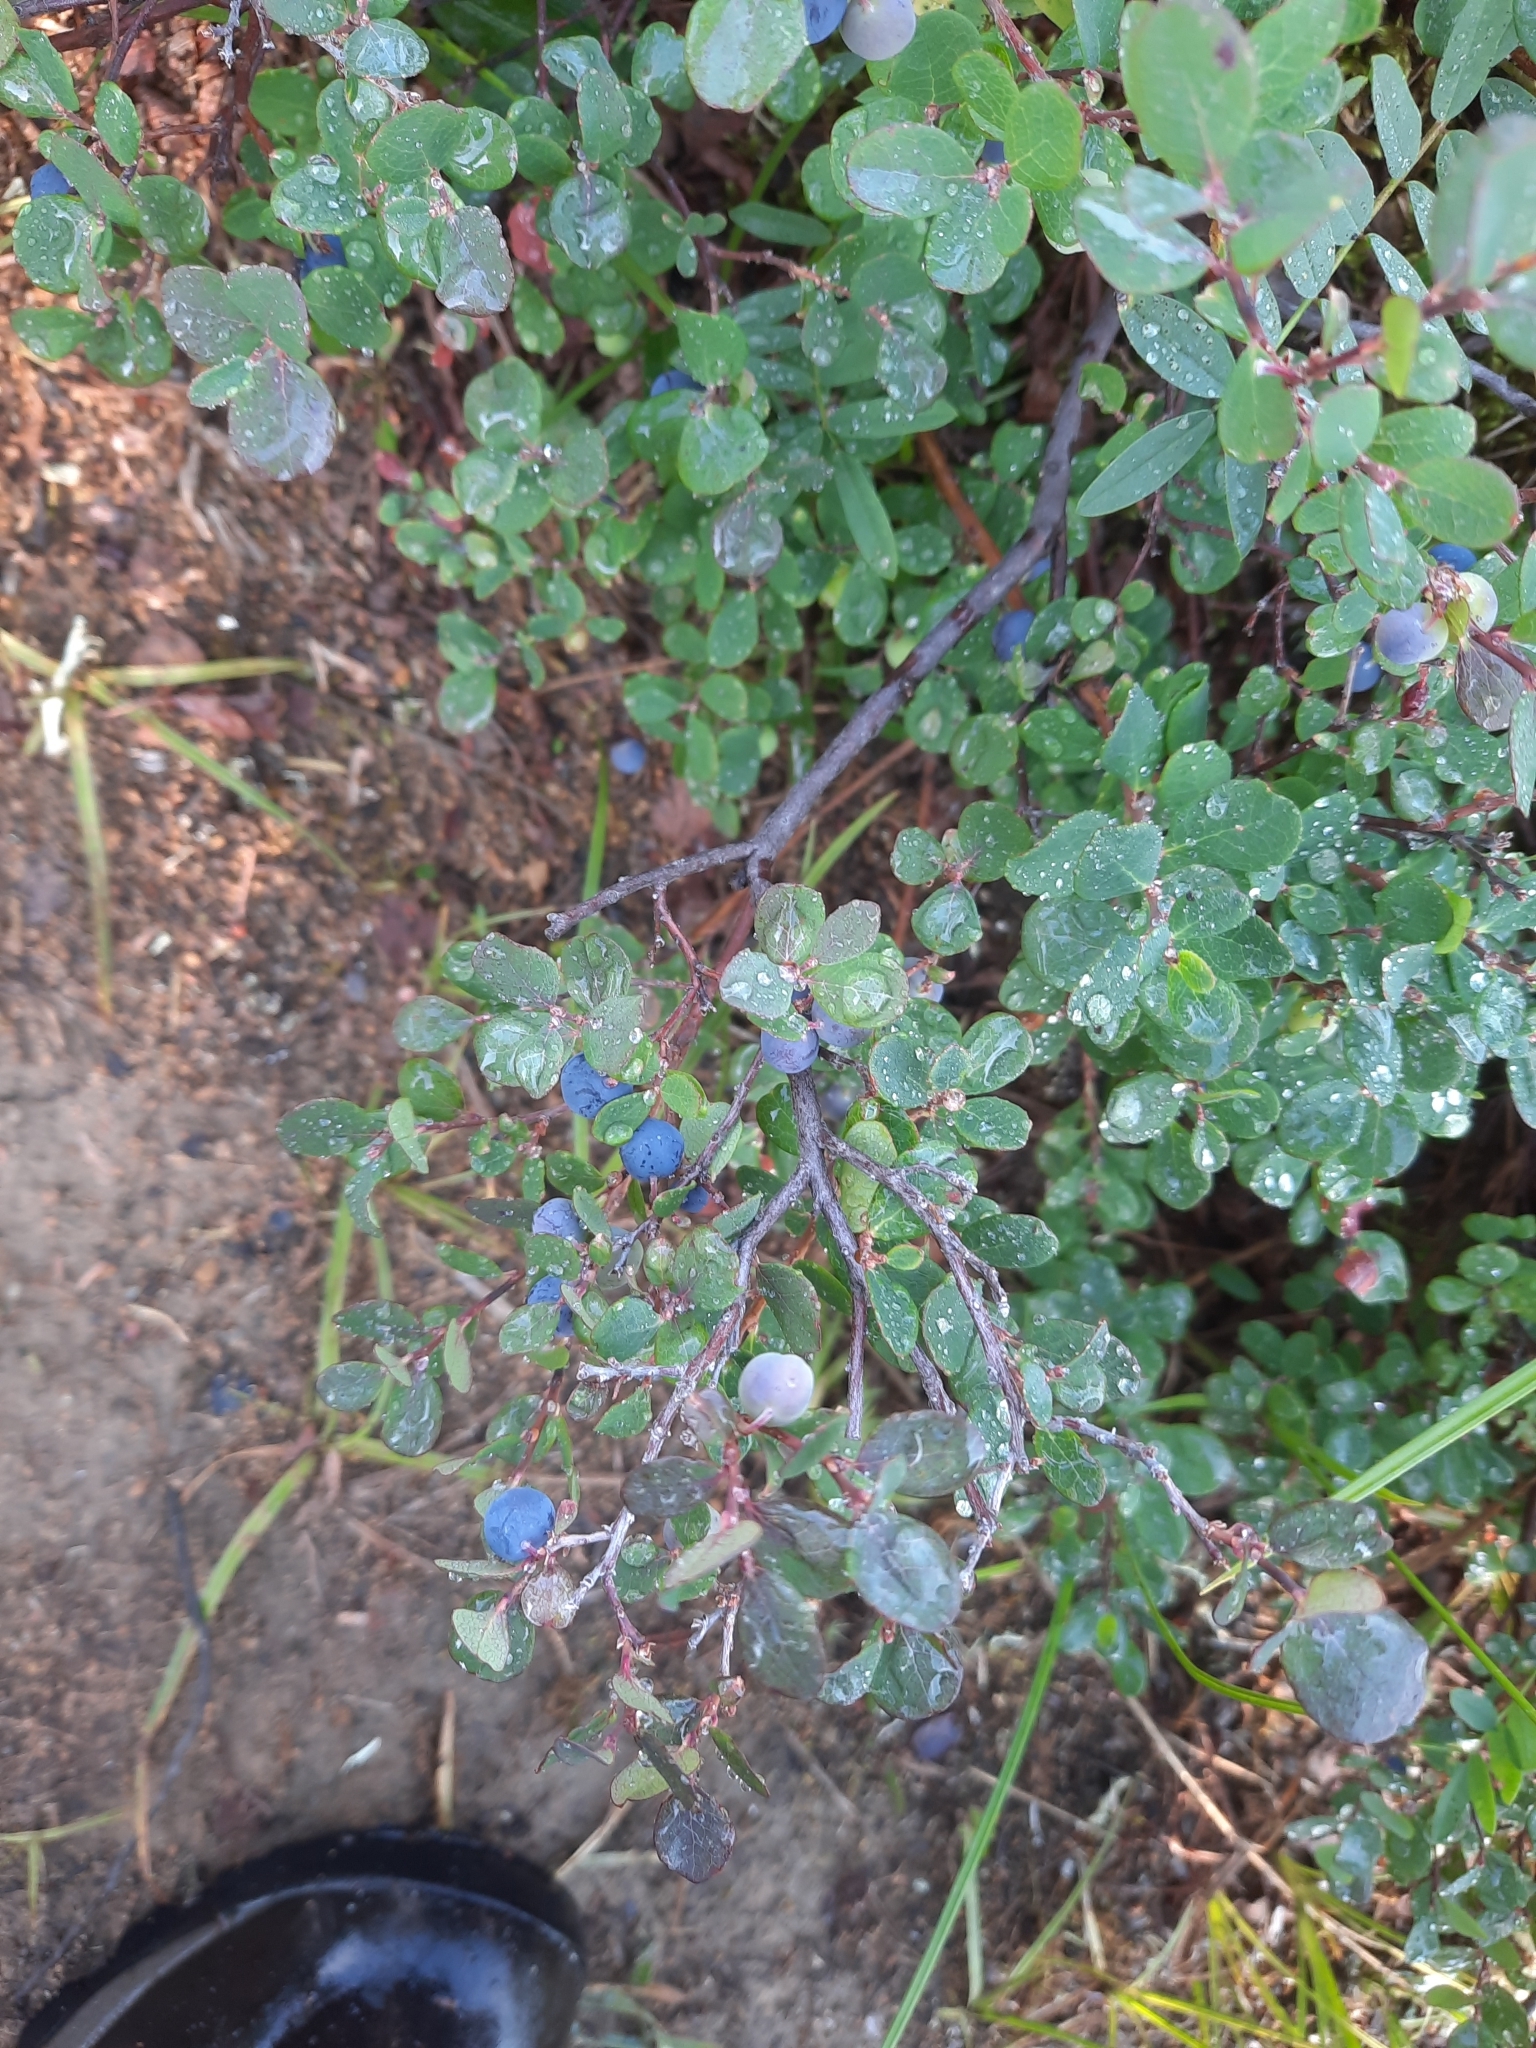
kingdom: Plantae
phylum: Tracheophyta
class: Magnoliopsida
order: Ericales
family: Ericaceae
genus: Vaccinium
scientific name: Vaccinium uliginosum
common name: Bog bilberry
